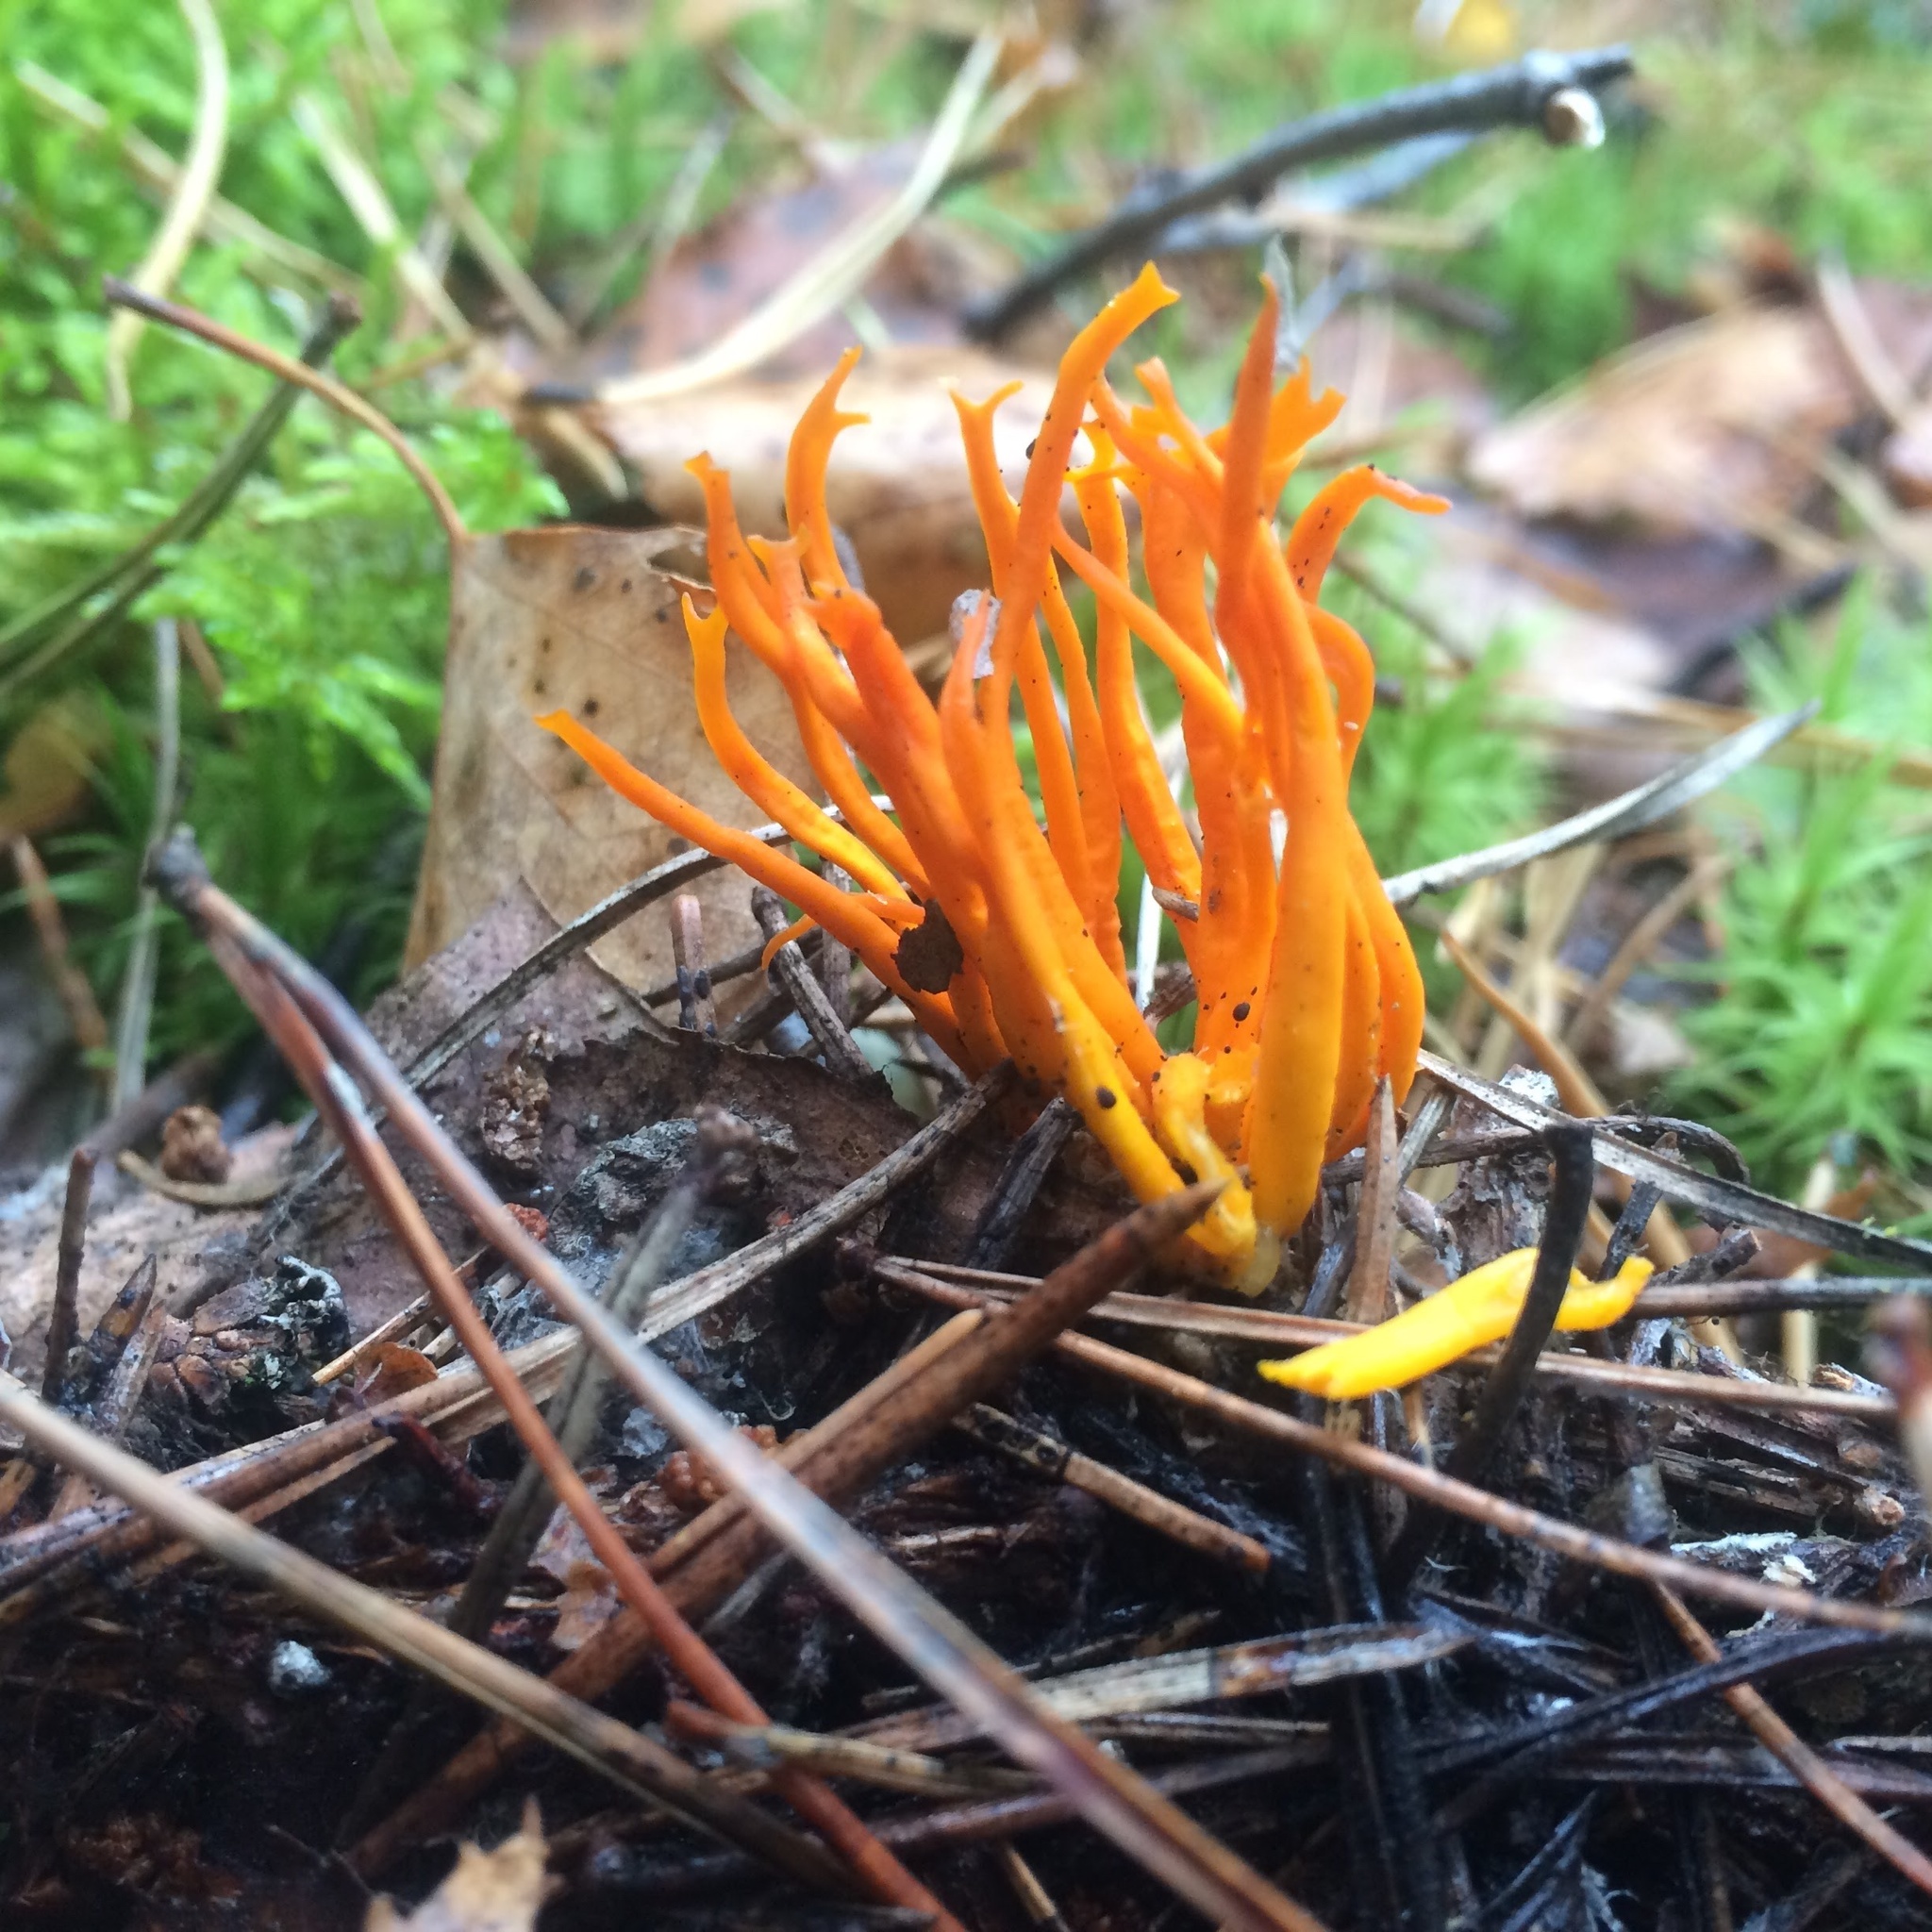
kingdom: Fungi
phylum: Basidiomycota
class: Dacrymycetes
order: Dacrymycetales
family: Dacrymycetaceae
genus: Calocera
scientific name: Calocera viscosa
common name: Yellow stagshorn
